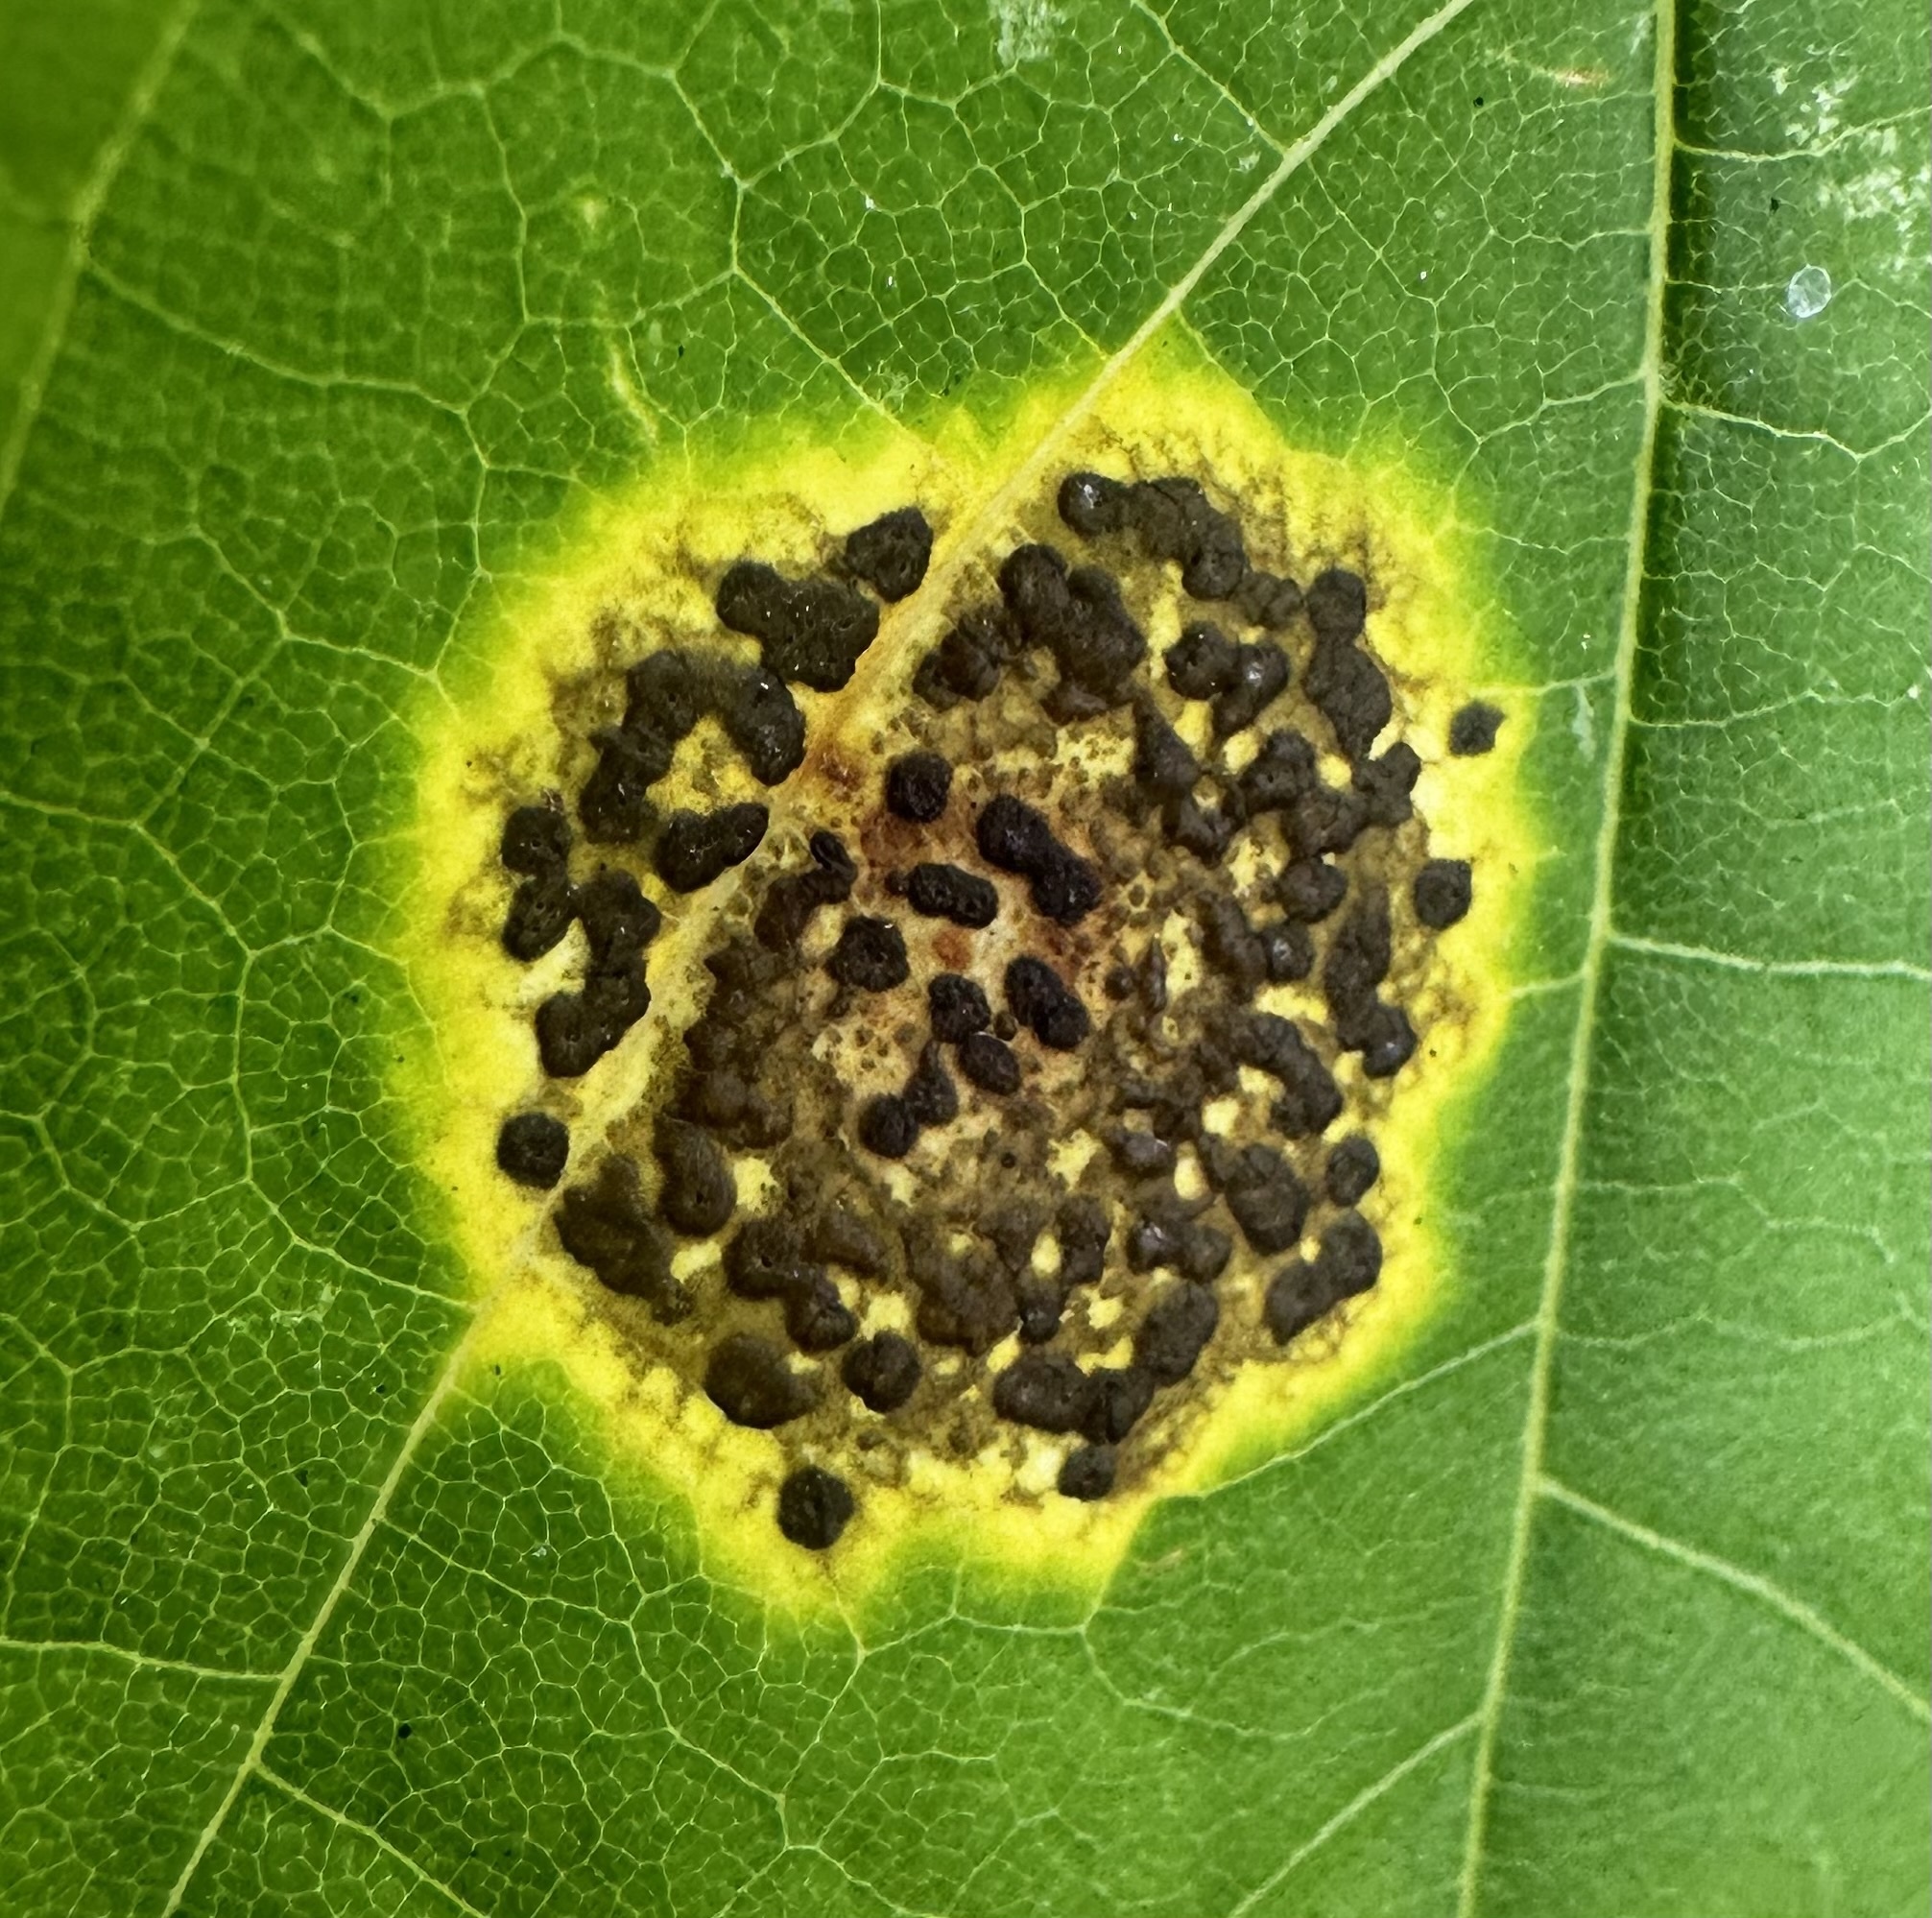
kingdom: Fungi
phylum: Ascomycota
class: Leotiomycetes
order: Rhytismatales
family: Rhytismataceae
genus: Rhytisma
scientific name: Rhytisma acerinum
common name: European tar spot
